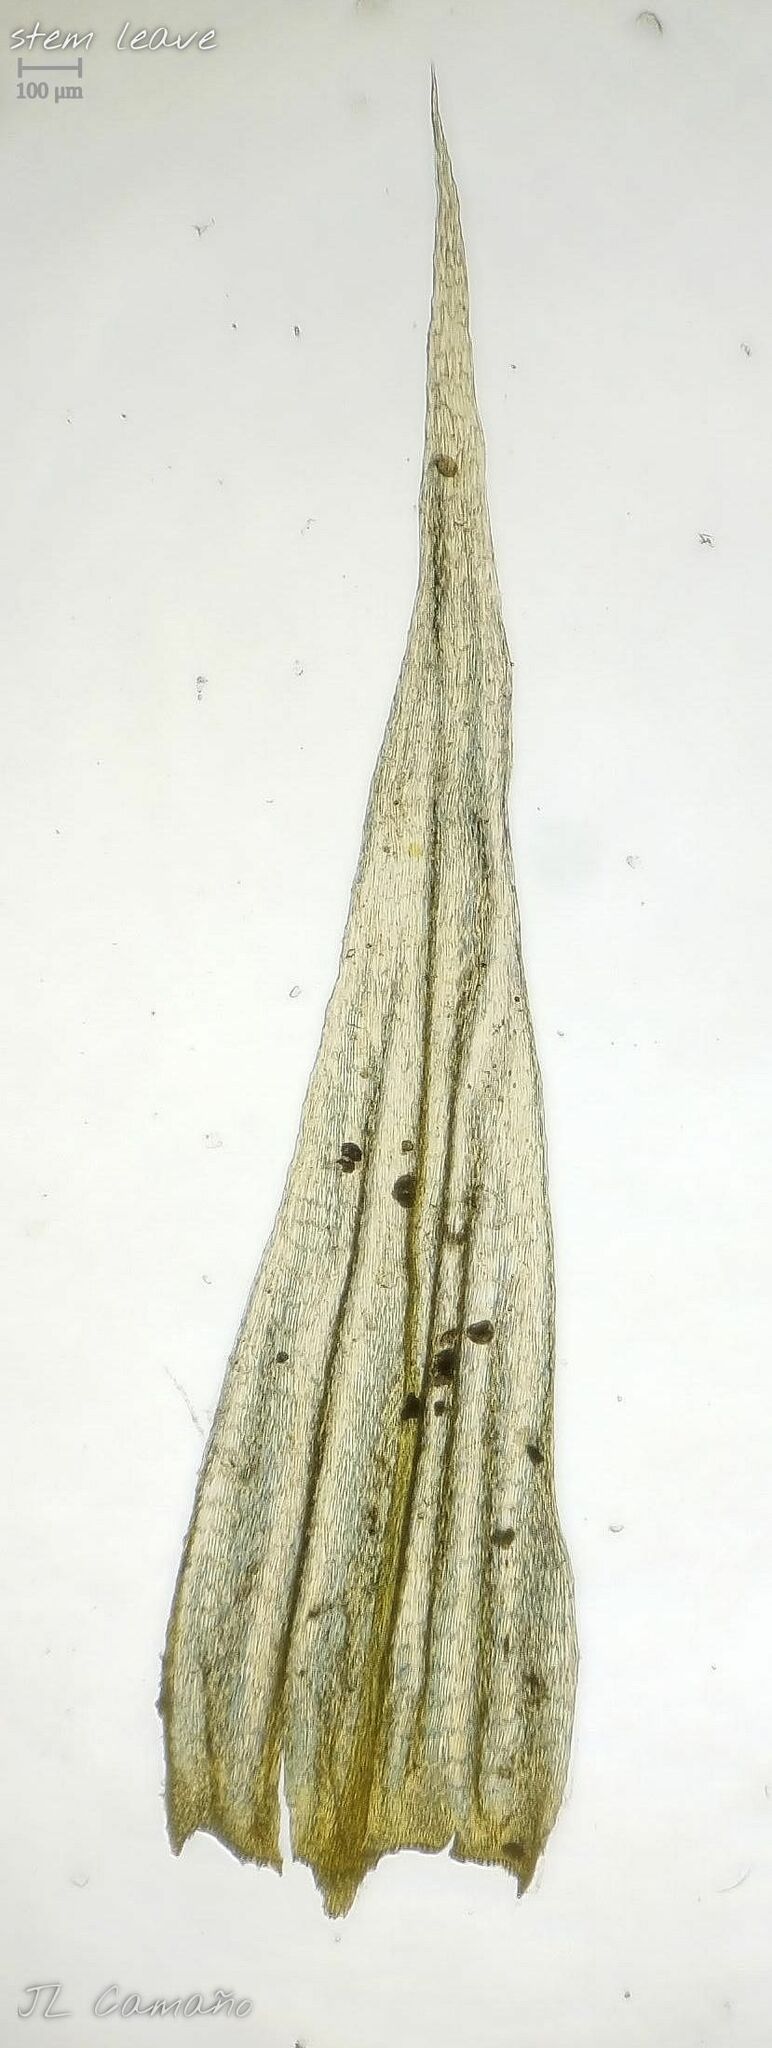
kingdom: Plantae
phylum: Bryophyta
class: Bryopsida
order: Hypnales
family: Brachytheciaceae
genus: Homalothecium
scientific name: Homalothecium lutescens
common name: Yellow feather-moss
